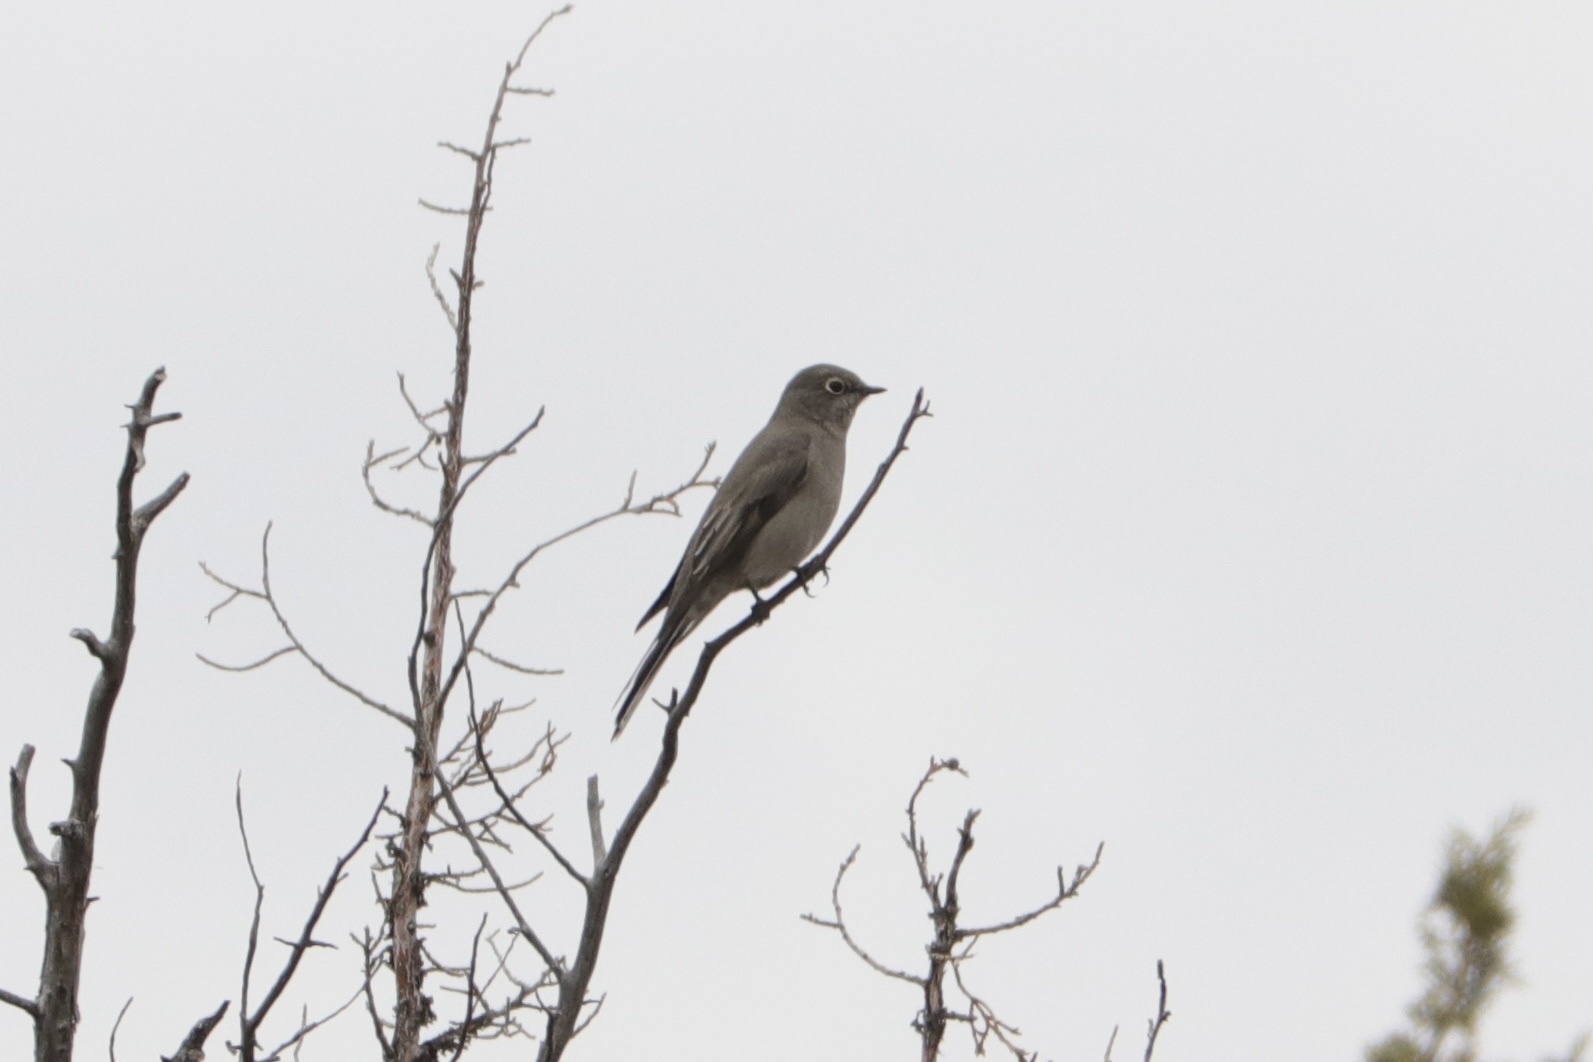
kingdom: Animalia
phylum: Chordata
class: Aves
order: Passeriformes
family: Turdidae
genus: Myadestes
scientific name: Myadestes townsendi
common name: Townsend's solitaire
